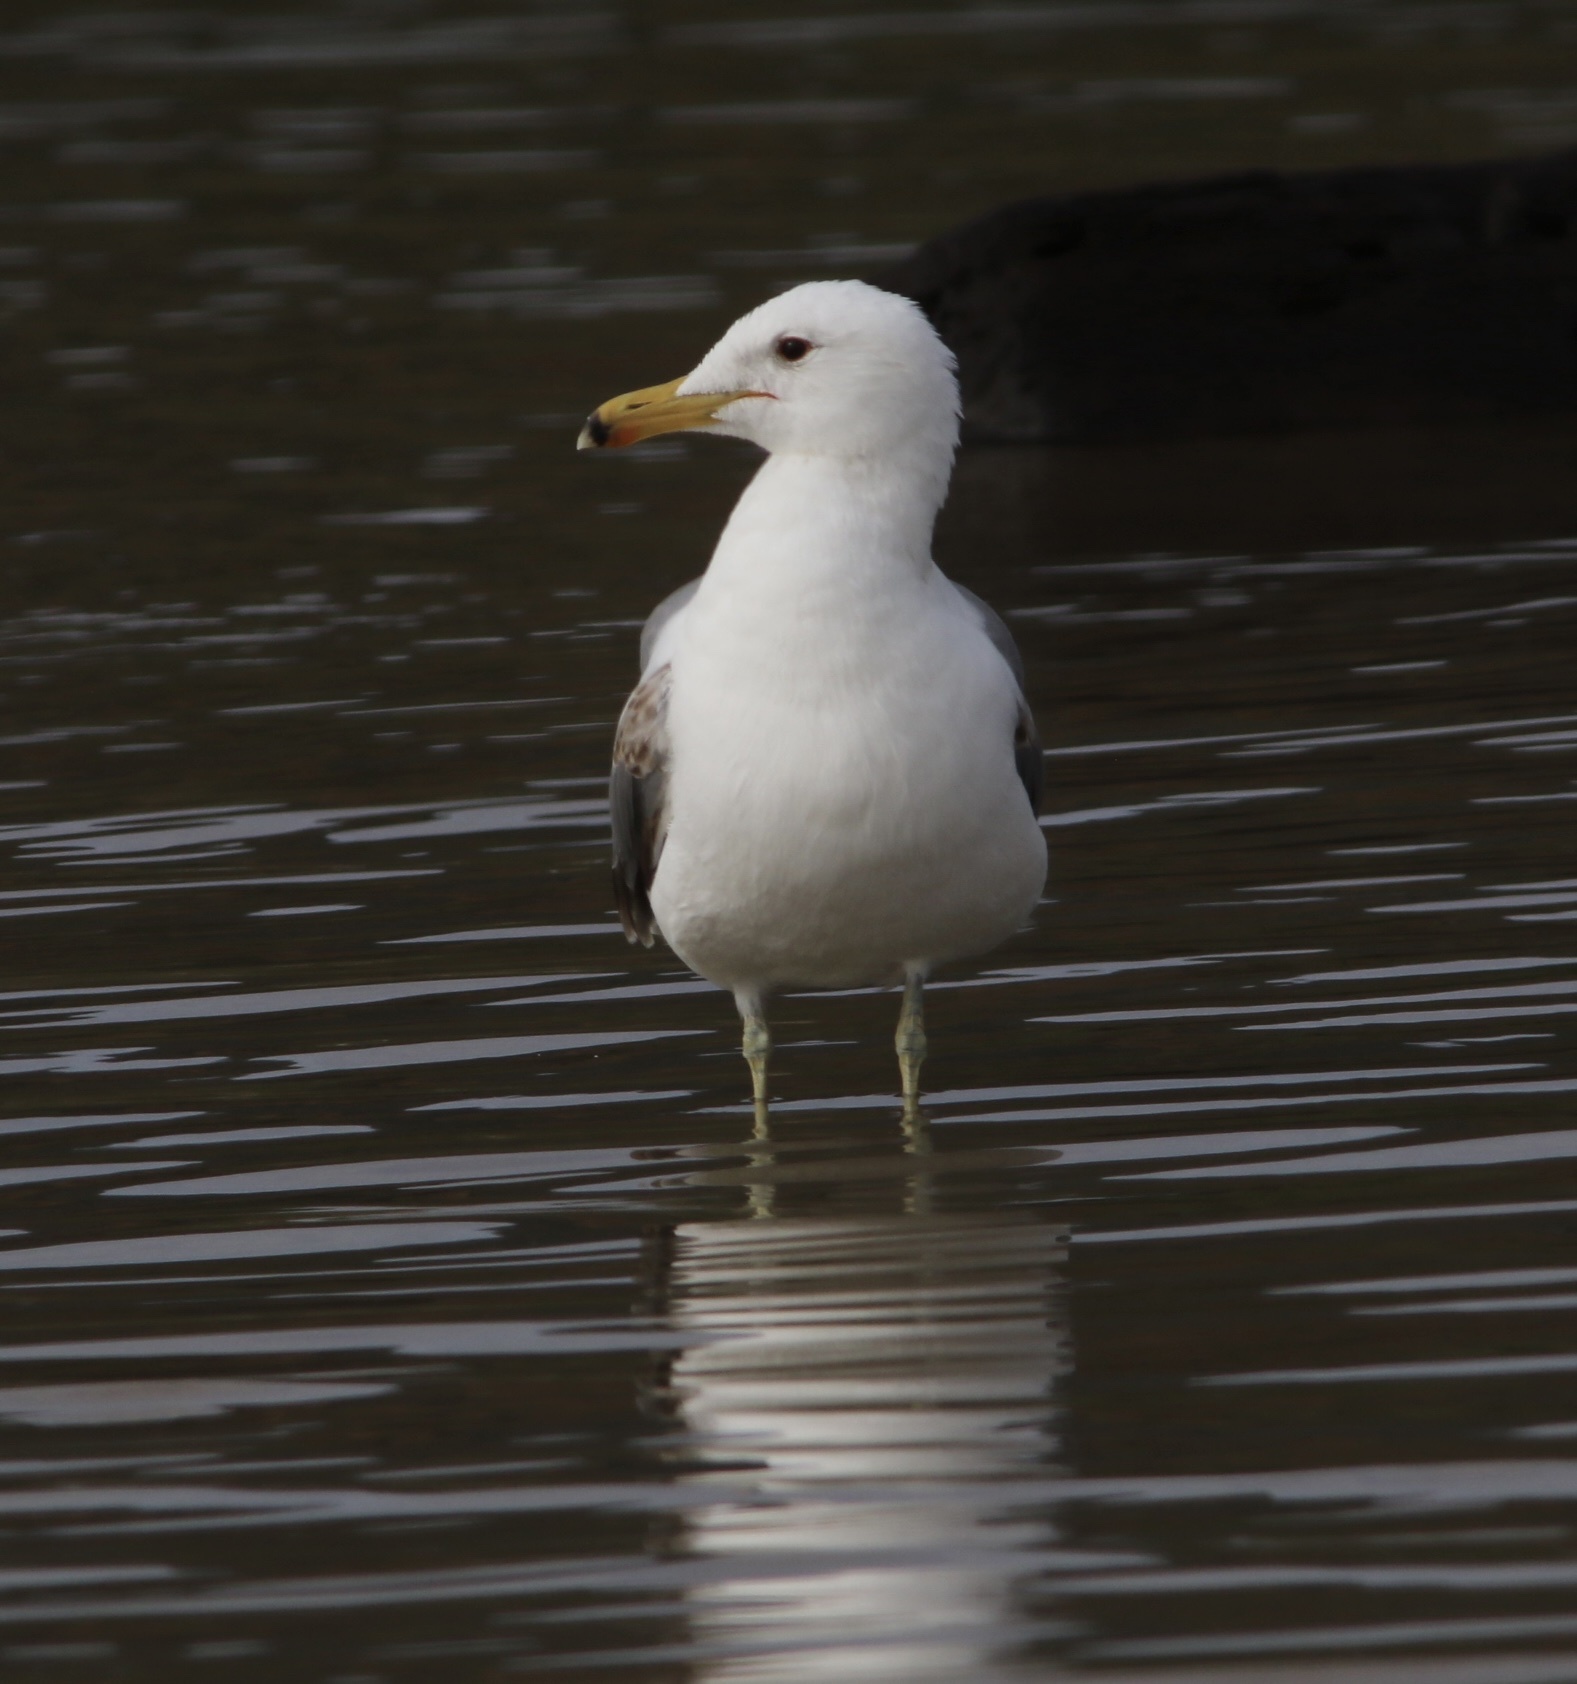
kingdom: Animalia
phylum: Chordata
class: Aves
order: Charadriiformes
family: Laridae
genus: Larus
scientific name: Larus californicus
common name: California gull
